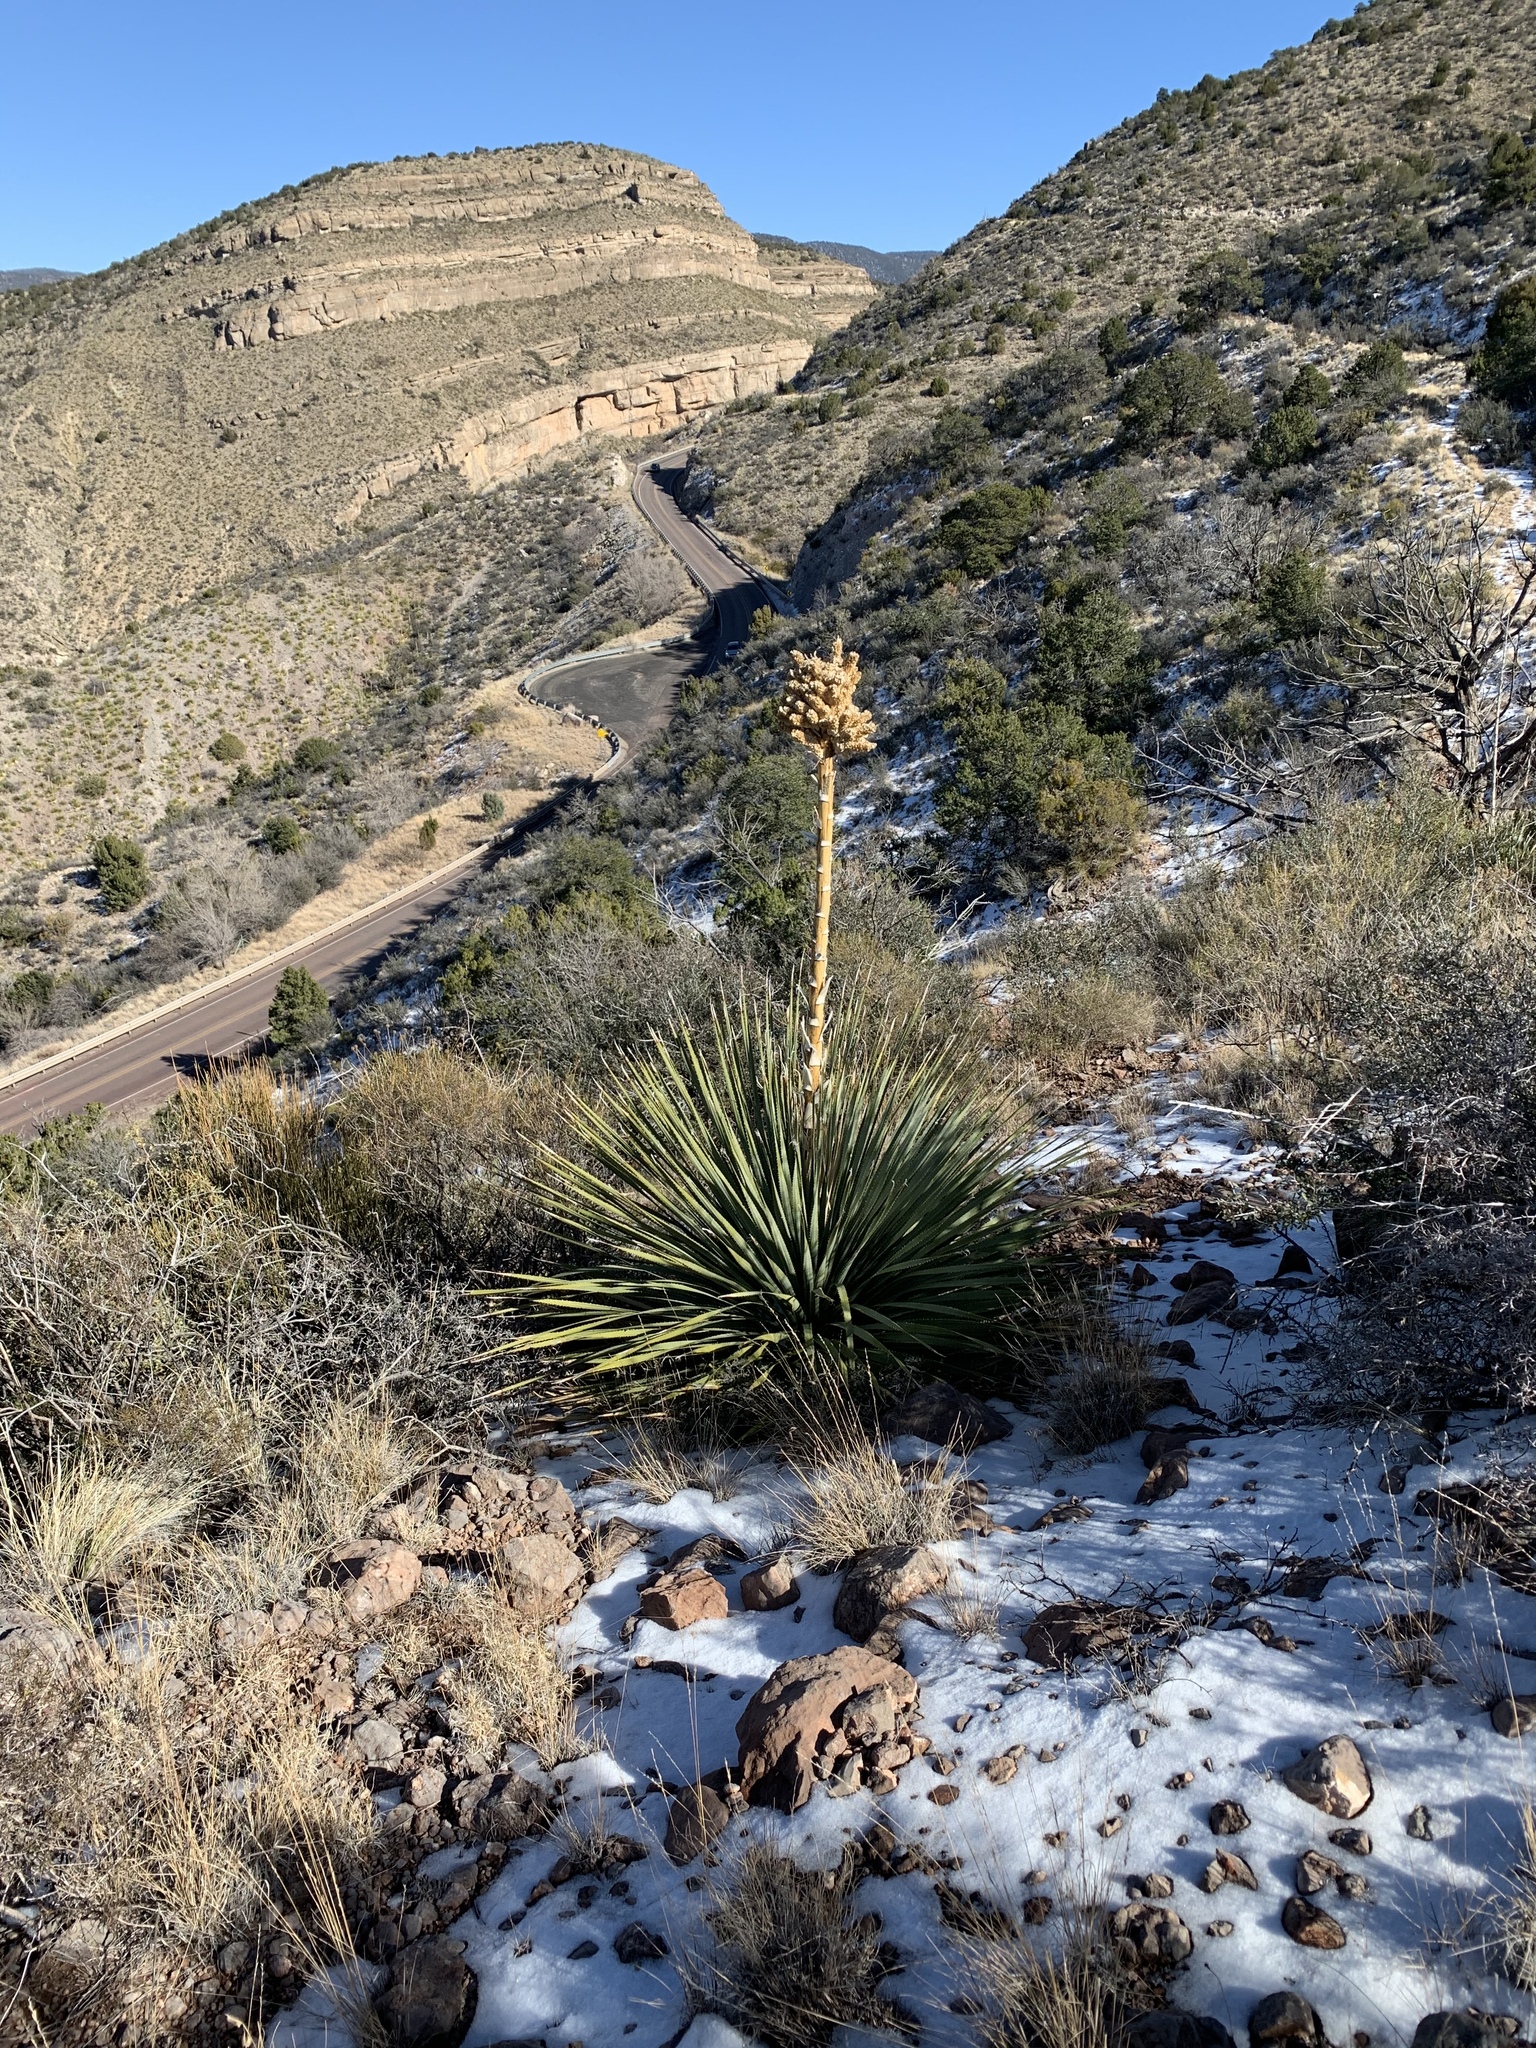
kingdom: Plantae
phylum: Tracheophyta
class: Liliopsida
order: Asparagales
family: Asparagaceae
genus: Dasylirion
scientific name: Dasylirion wheeleri
